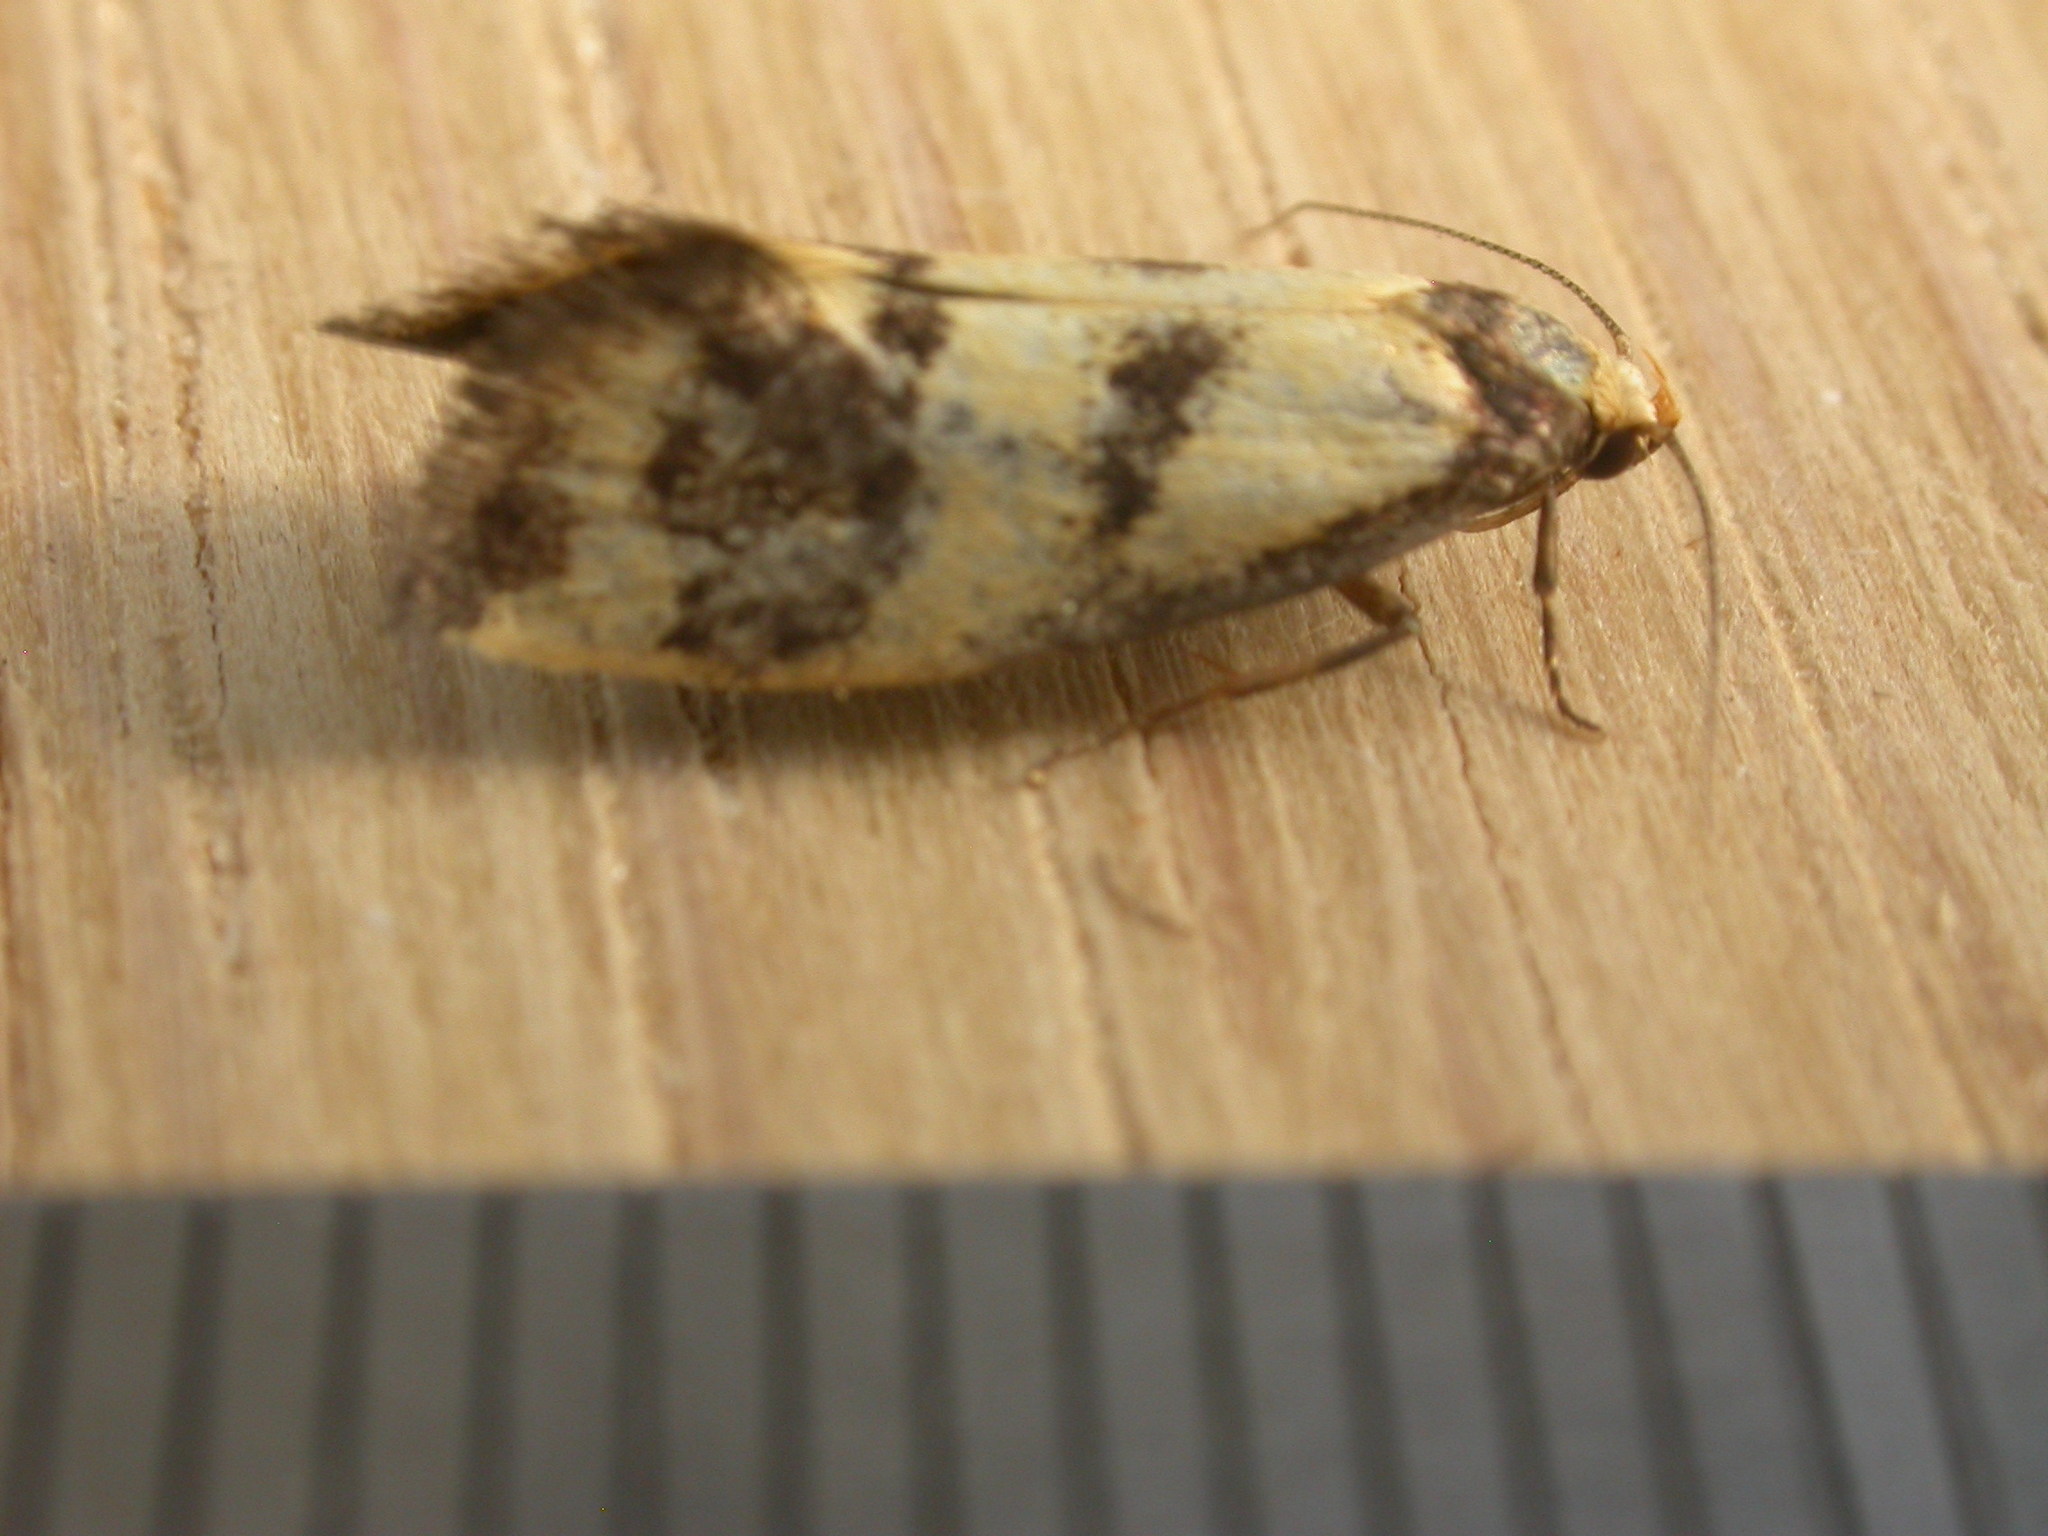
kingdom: Animalia
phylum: Arthropoda
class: Insecta
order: Lepidoptera
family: Oecophoridae
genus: Olbonoma
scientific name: Olbonoma triptycha
